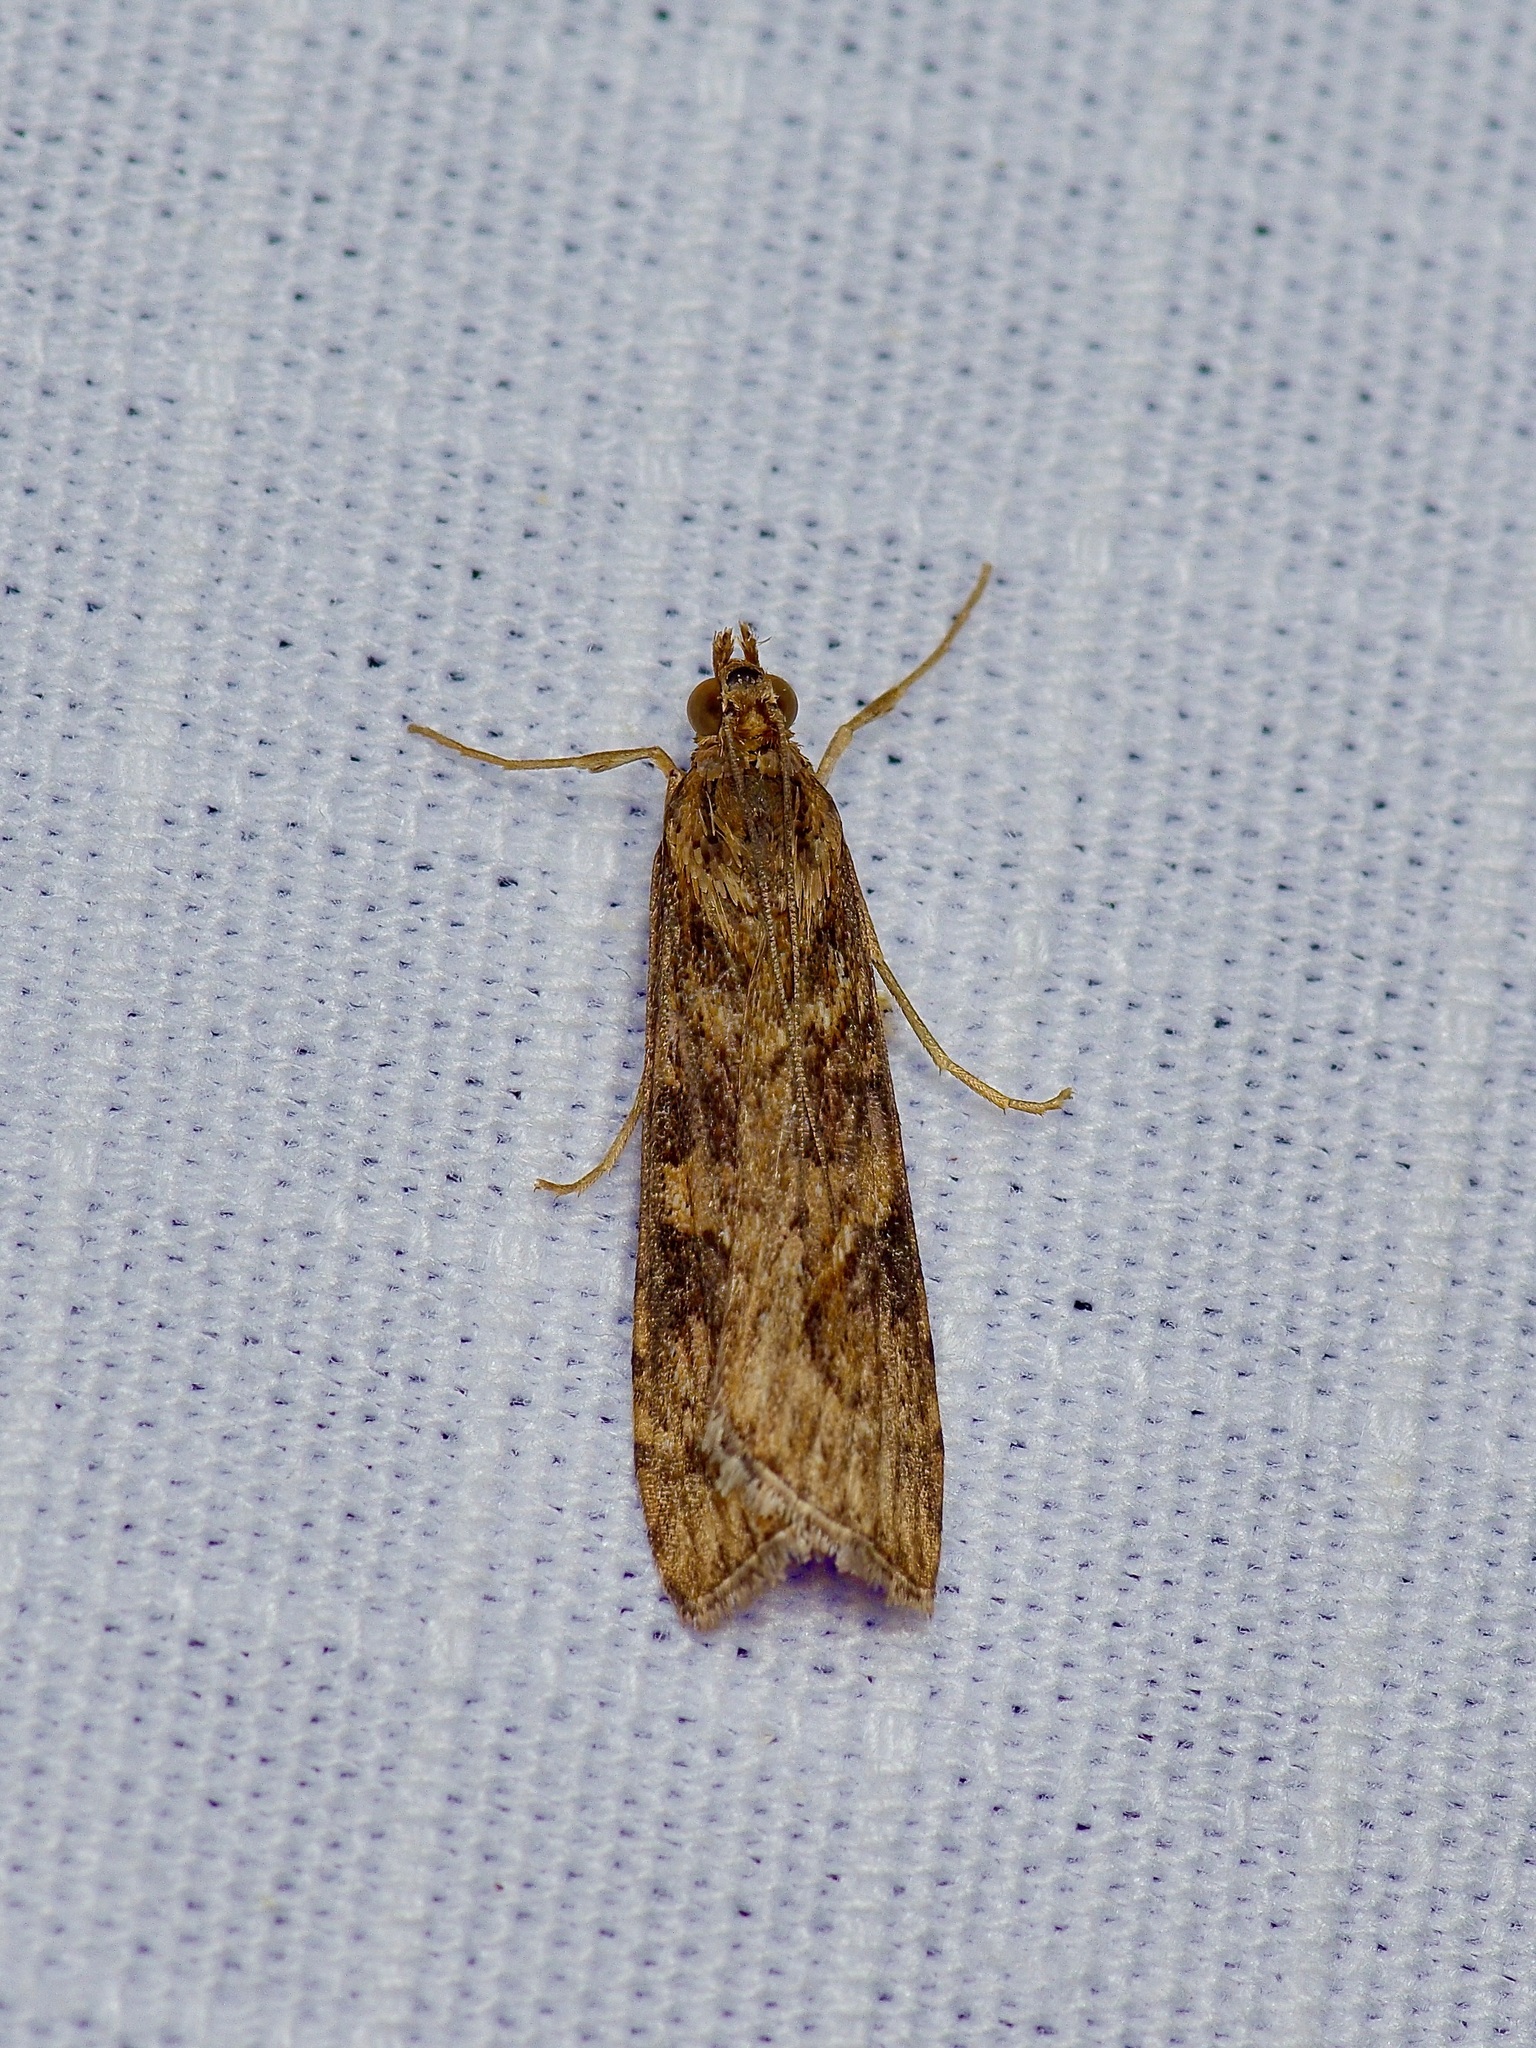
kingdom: Animalia
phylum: Arthropoda
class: Insecta
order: Lepidoptera
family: Crambidae
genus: Nomophila
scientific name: Nomophila nearctica
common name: American rush veneer
